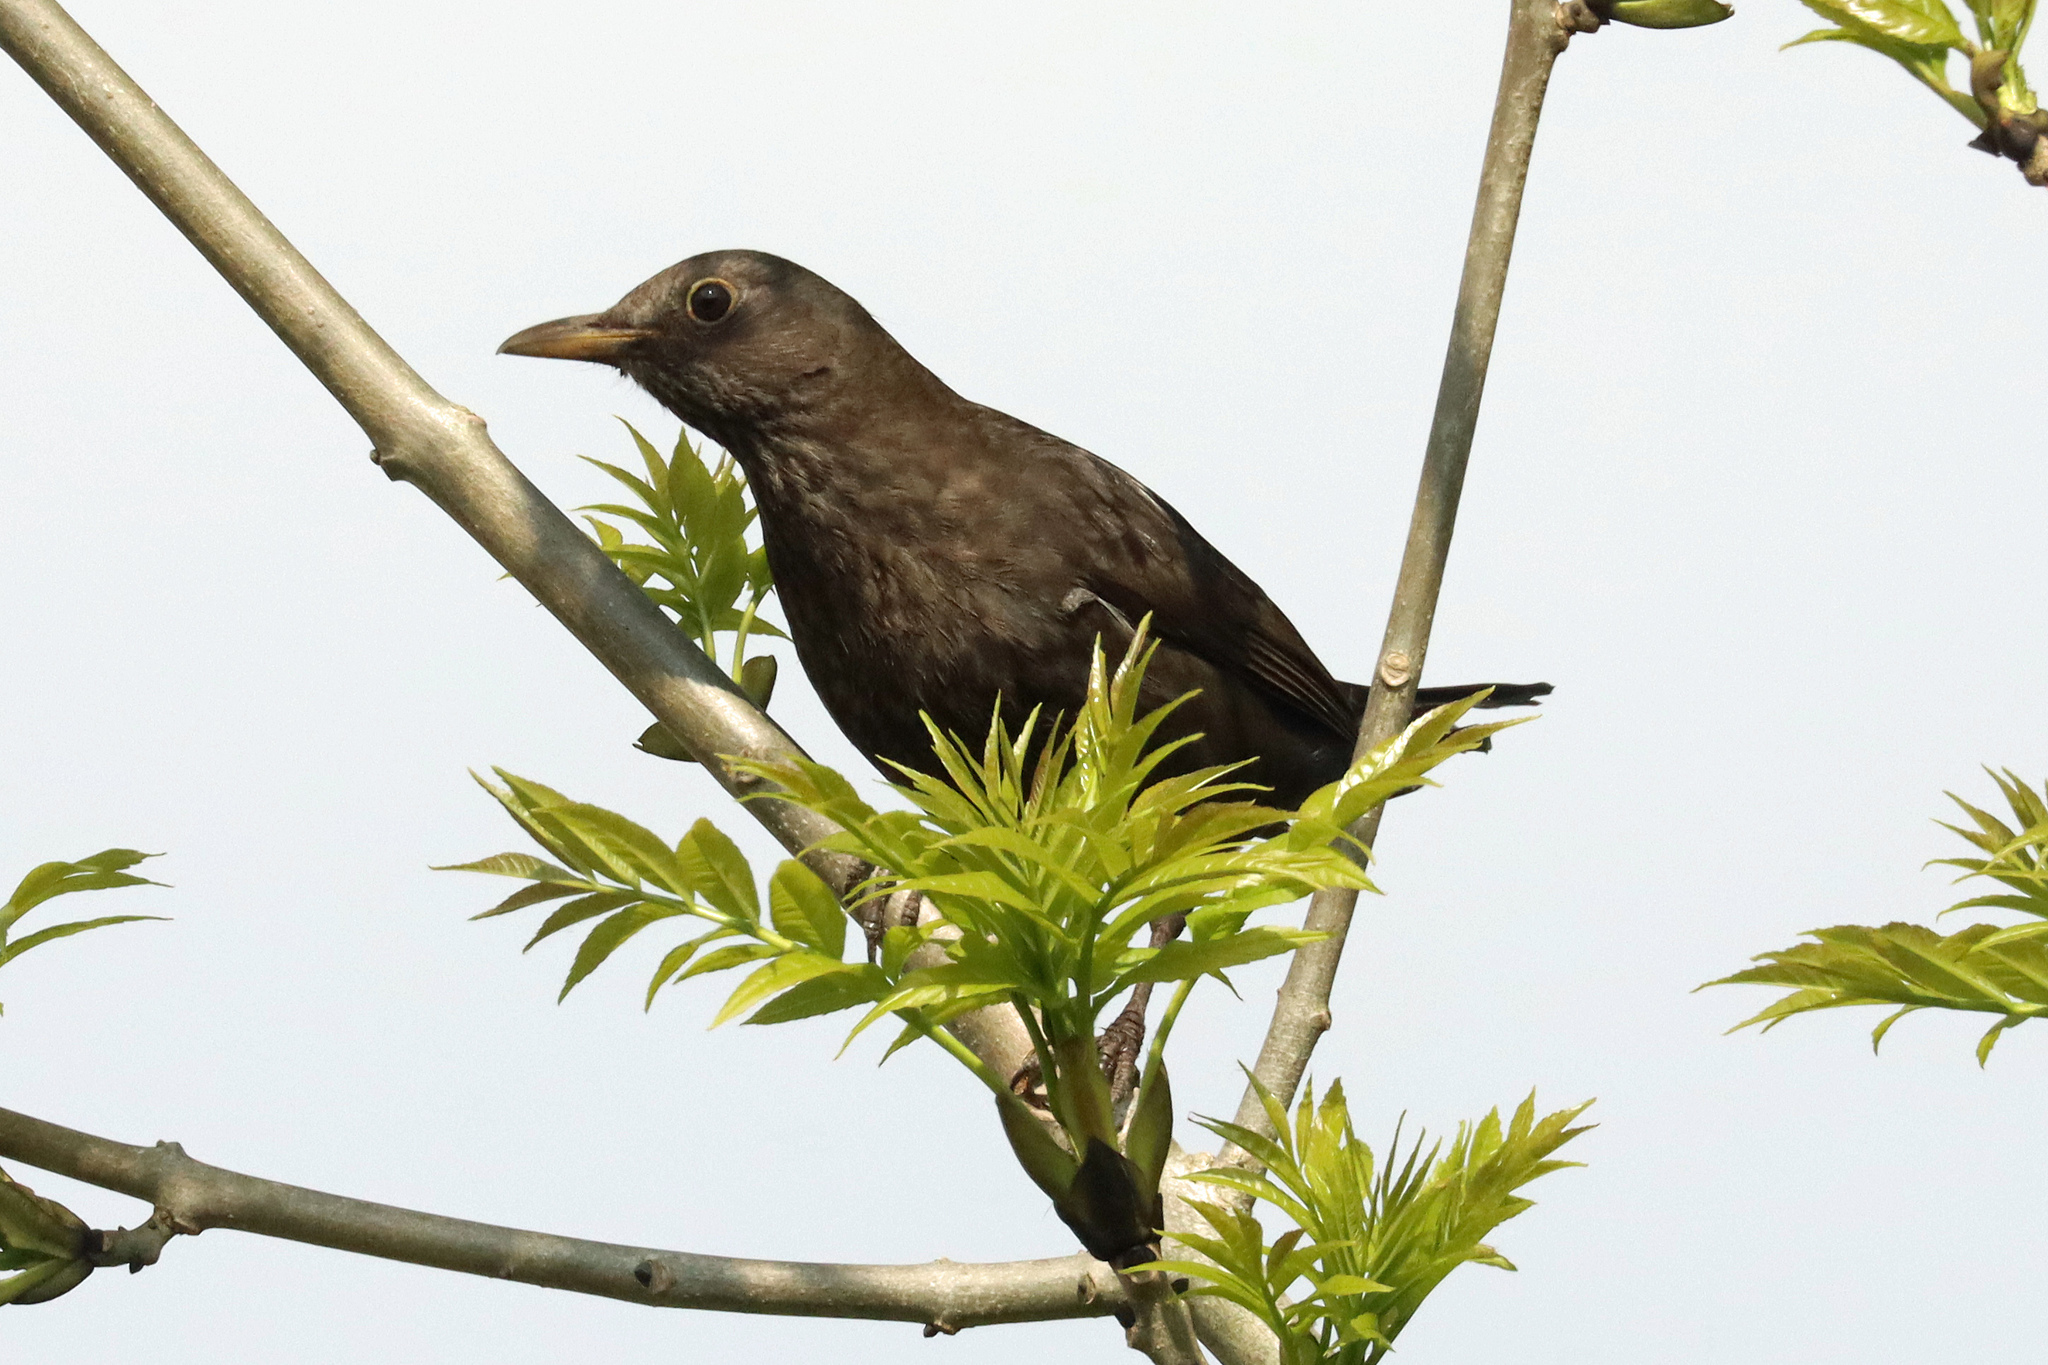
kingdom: Animalia
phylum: Chordata
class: Aves
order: Passeriformes
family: Turdidae
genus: Turdus
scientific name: Turdus merula
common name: Common blackbird
